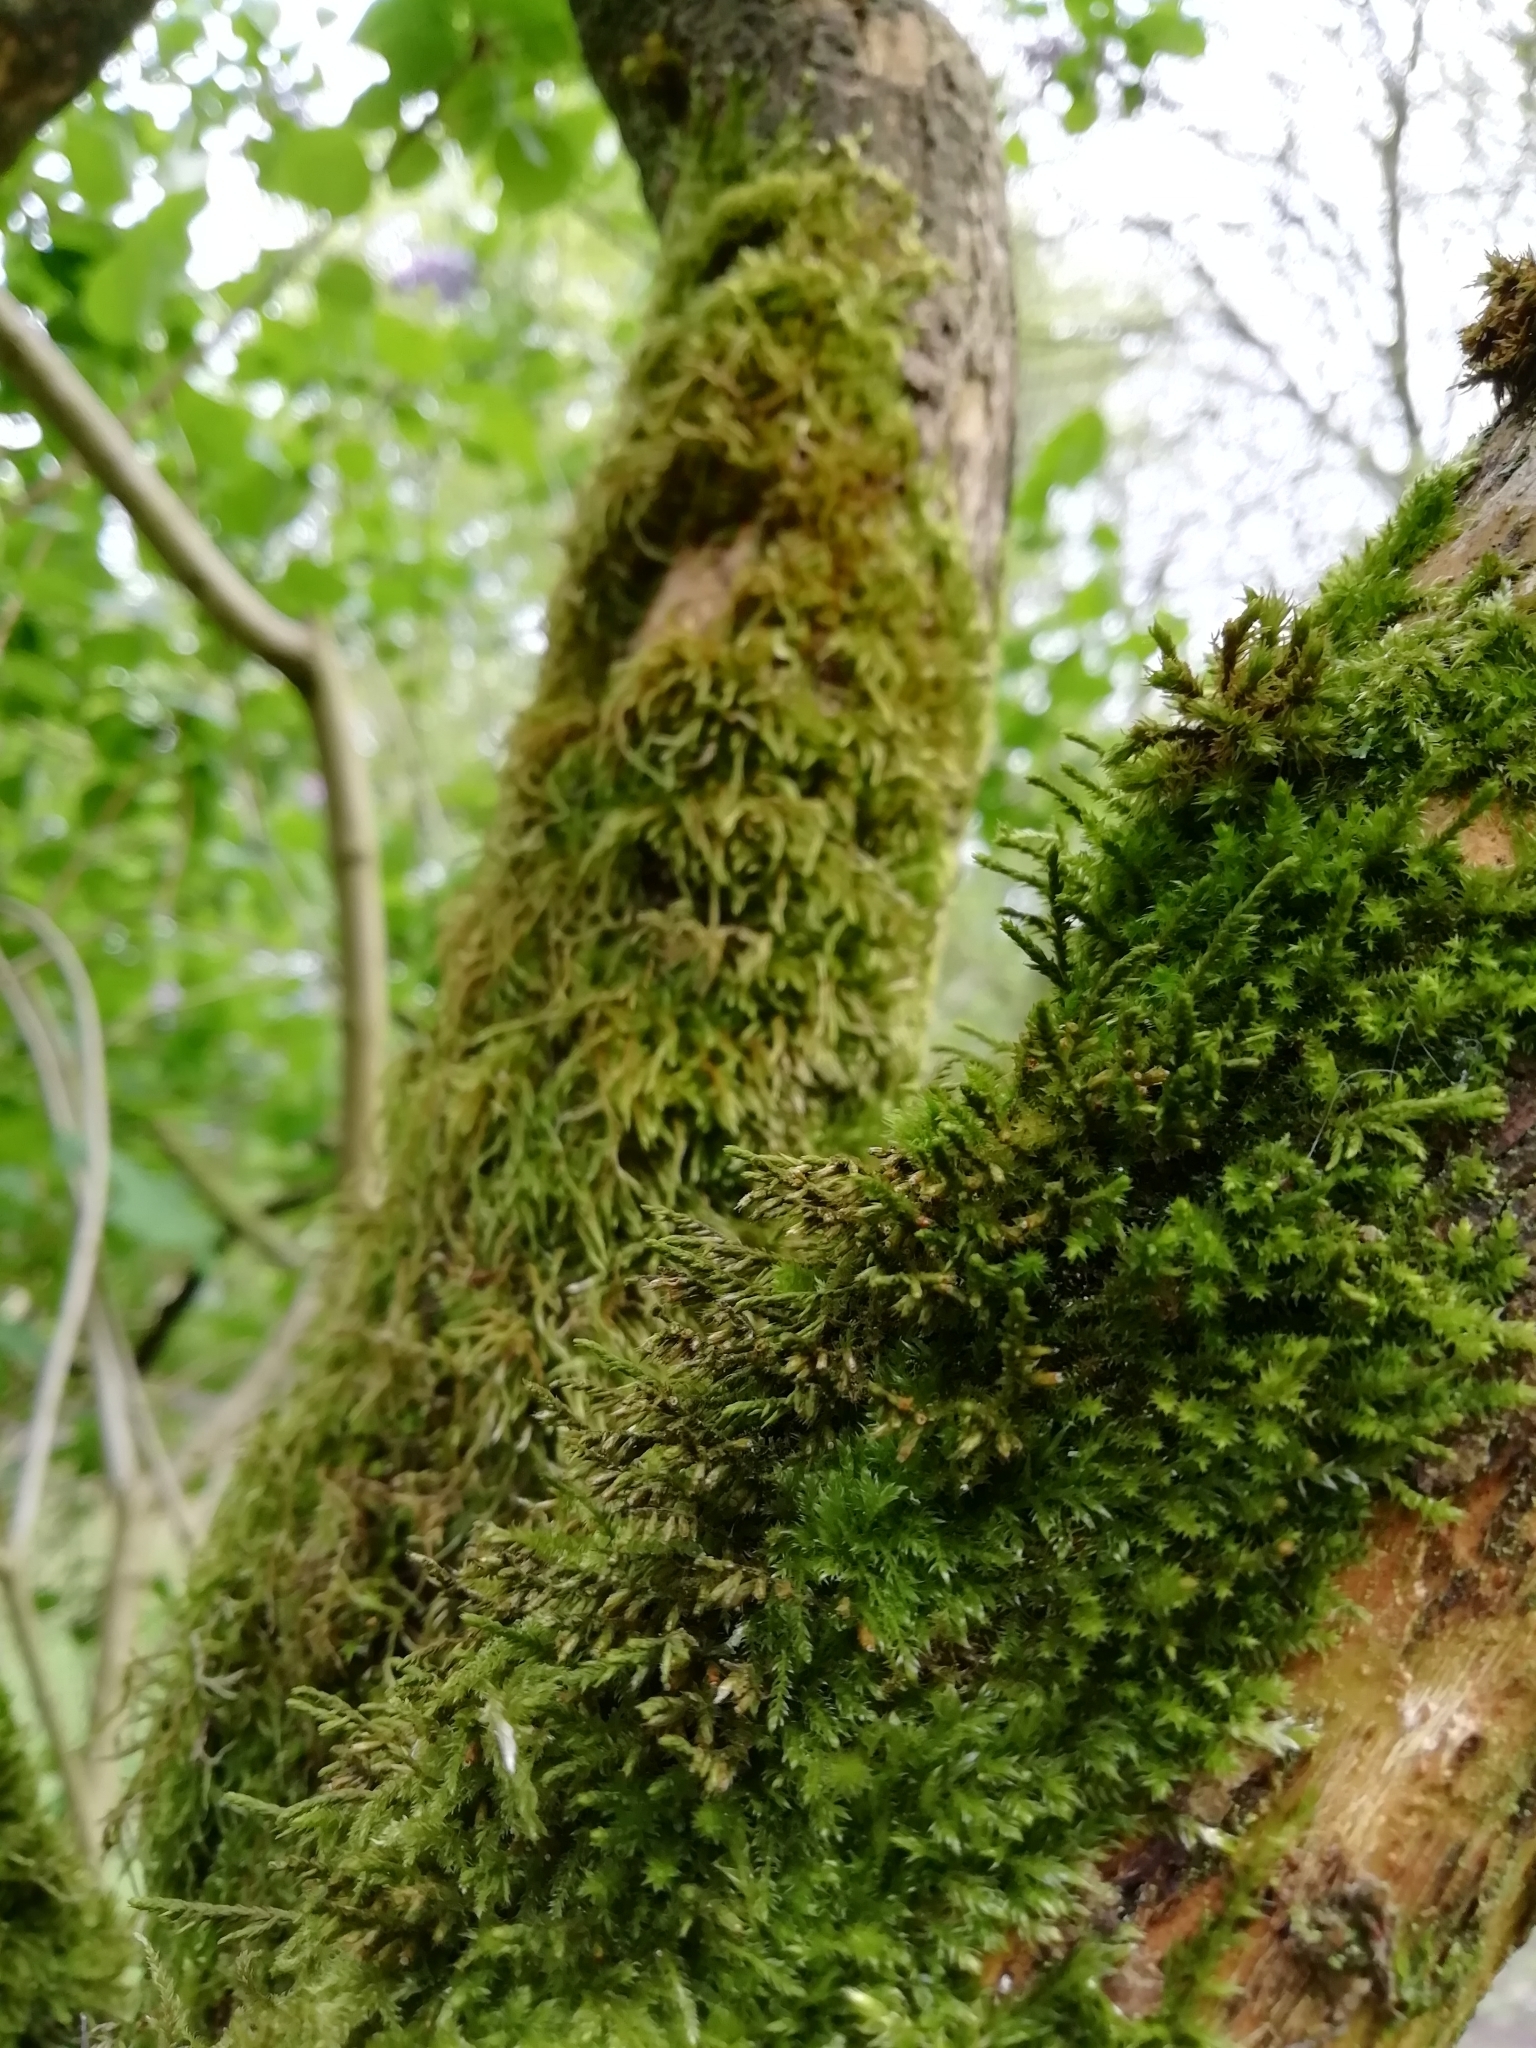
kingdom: Plantae
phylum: Bryophyta
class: Bryopsida
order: Hypnales
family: Cryphaeaceae
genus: Cryphaea
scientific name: Cryphaea heteromalla
